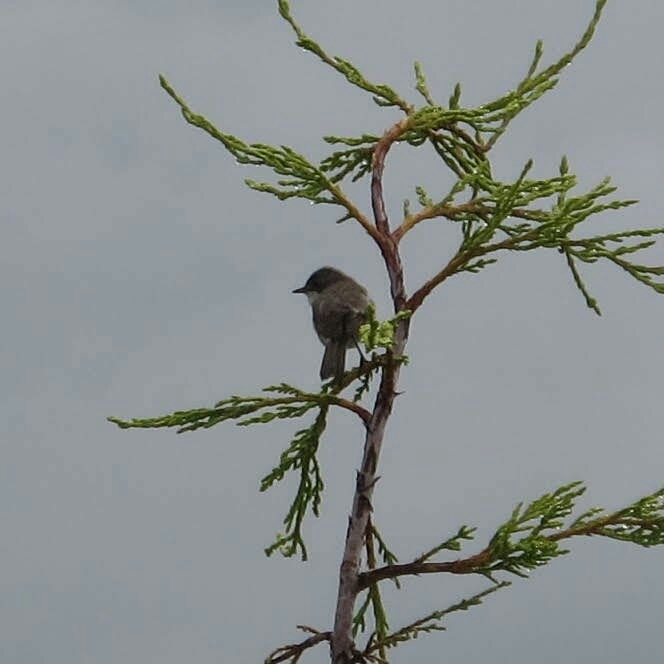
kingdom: Animalia
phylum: Chordata
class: Aves
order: Passeriformes
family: Sylviidae
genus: Sylvia
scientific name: Sylvia curruca
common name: Lesser whitethroat
